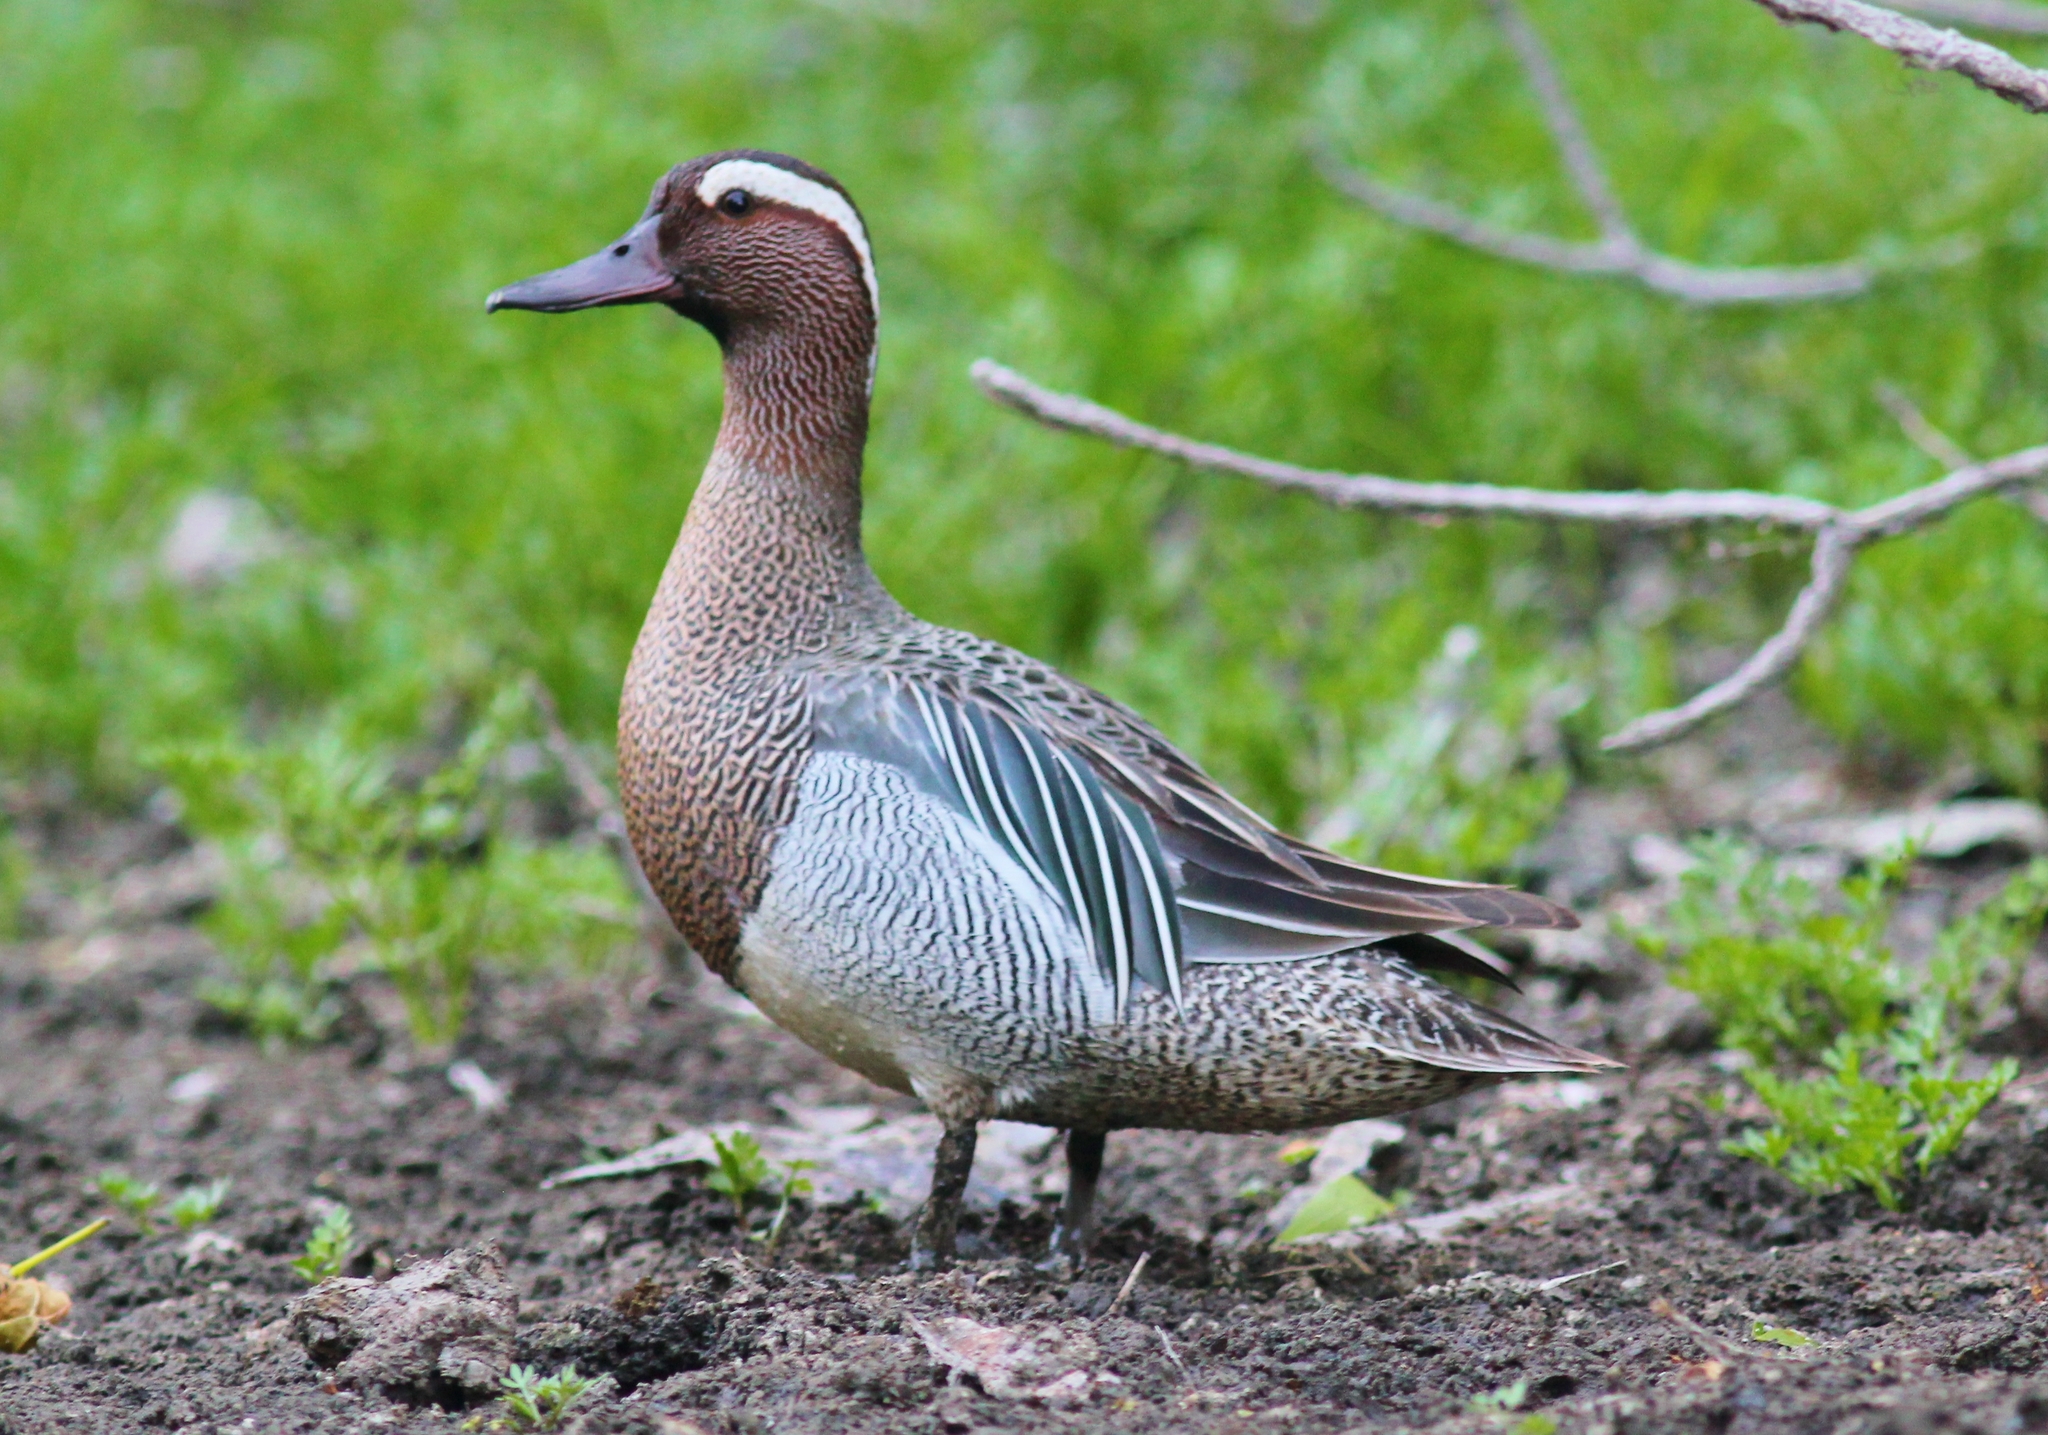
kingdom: Animalia
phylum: Chordata
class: Aves
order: Anseriformes
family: Anatidae
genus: Spatula
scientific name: Spatula querquedula
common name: Garganey
